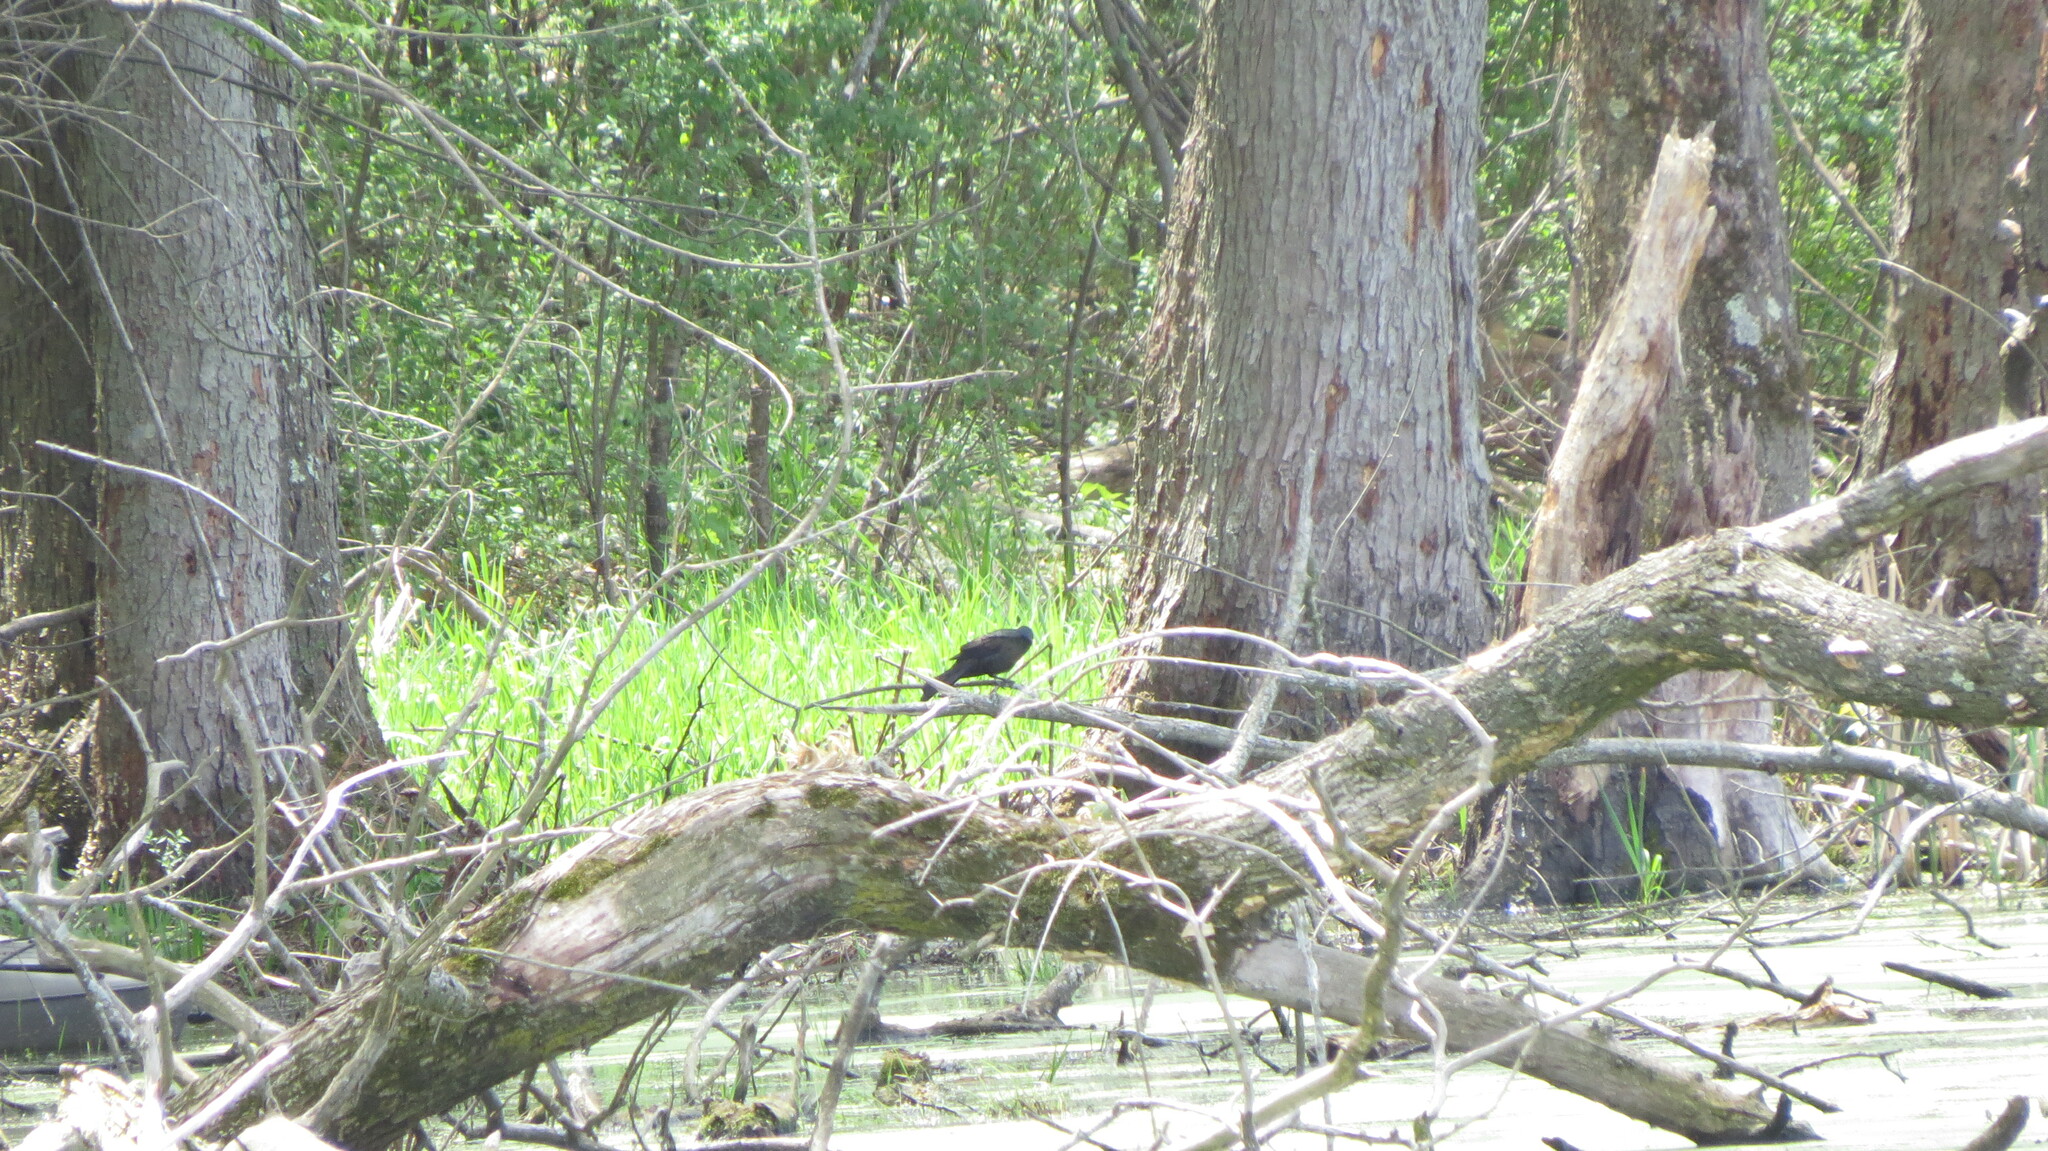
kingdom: Animalia
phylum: Chordata
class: Aves
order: Passeriformes
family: Icteridae
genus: Quiscalus
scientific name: Quiscalus quiscula
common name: Common grackle
